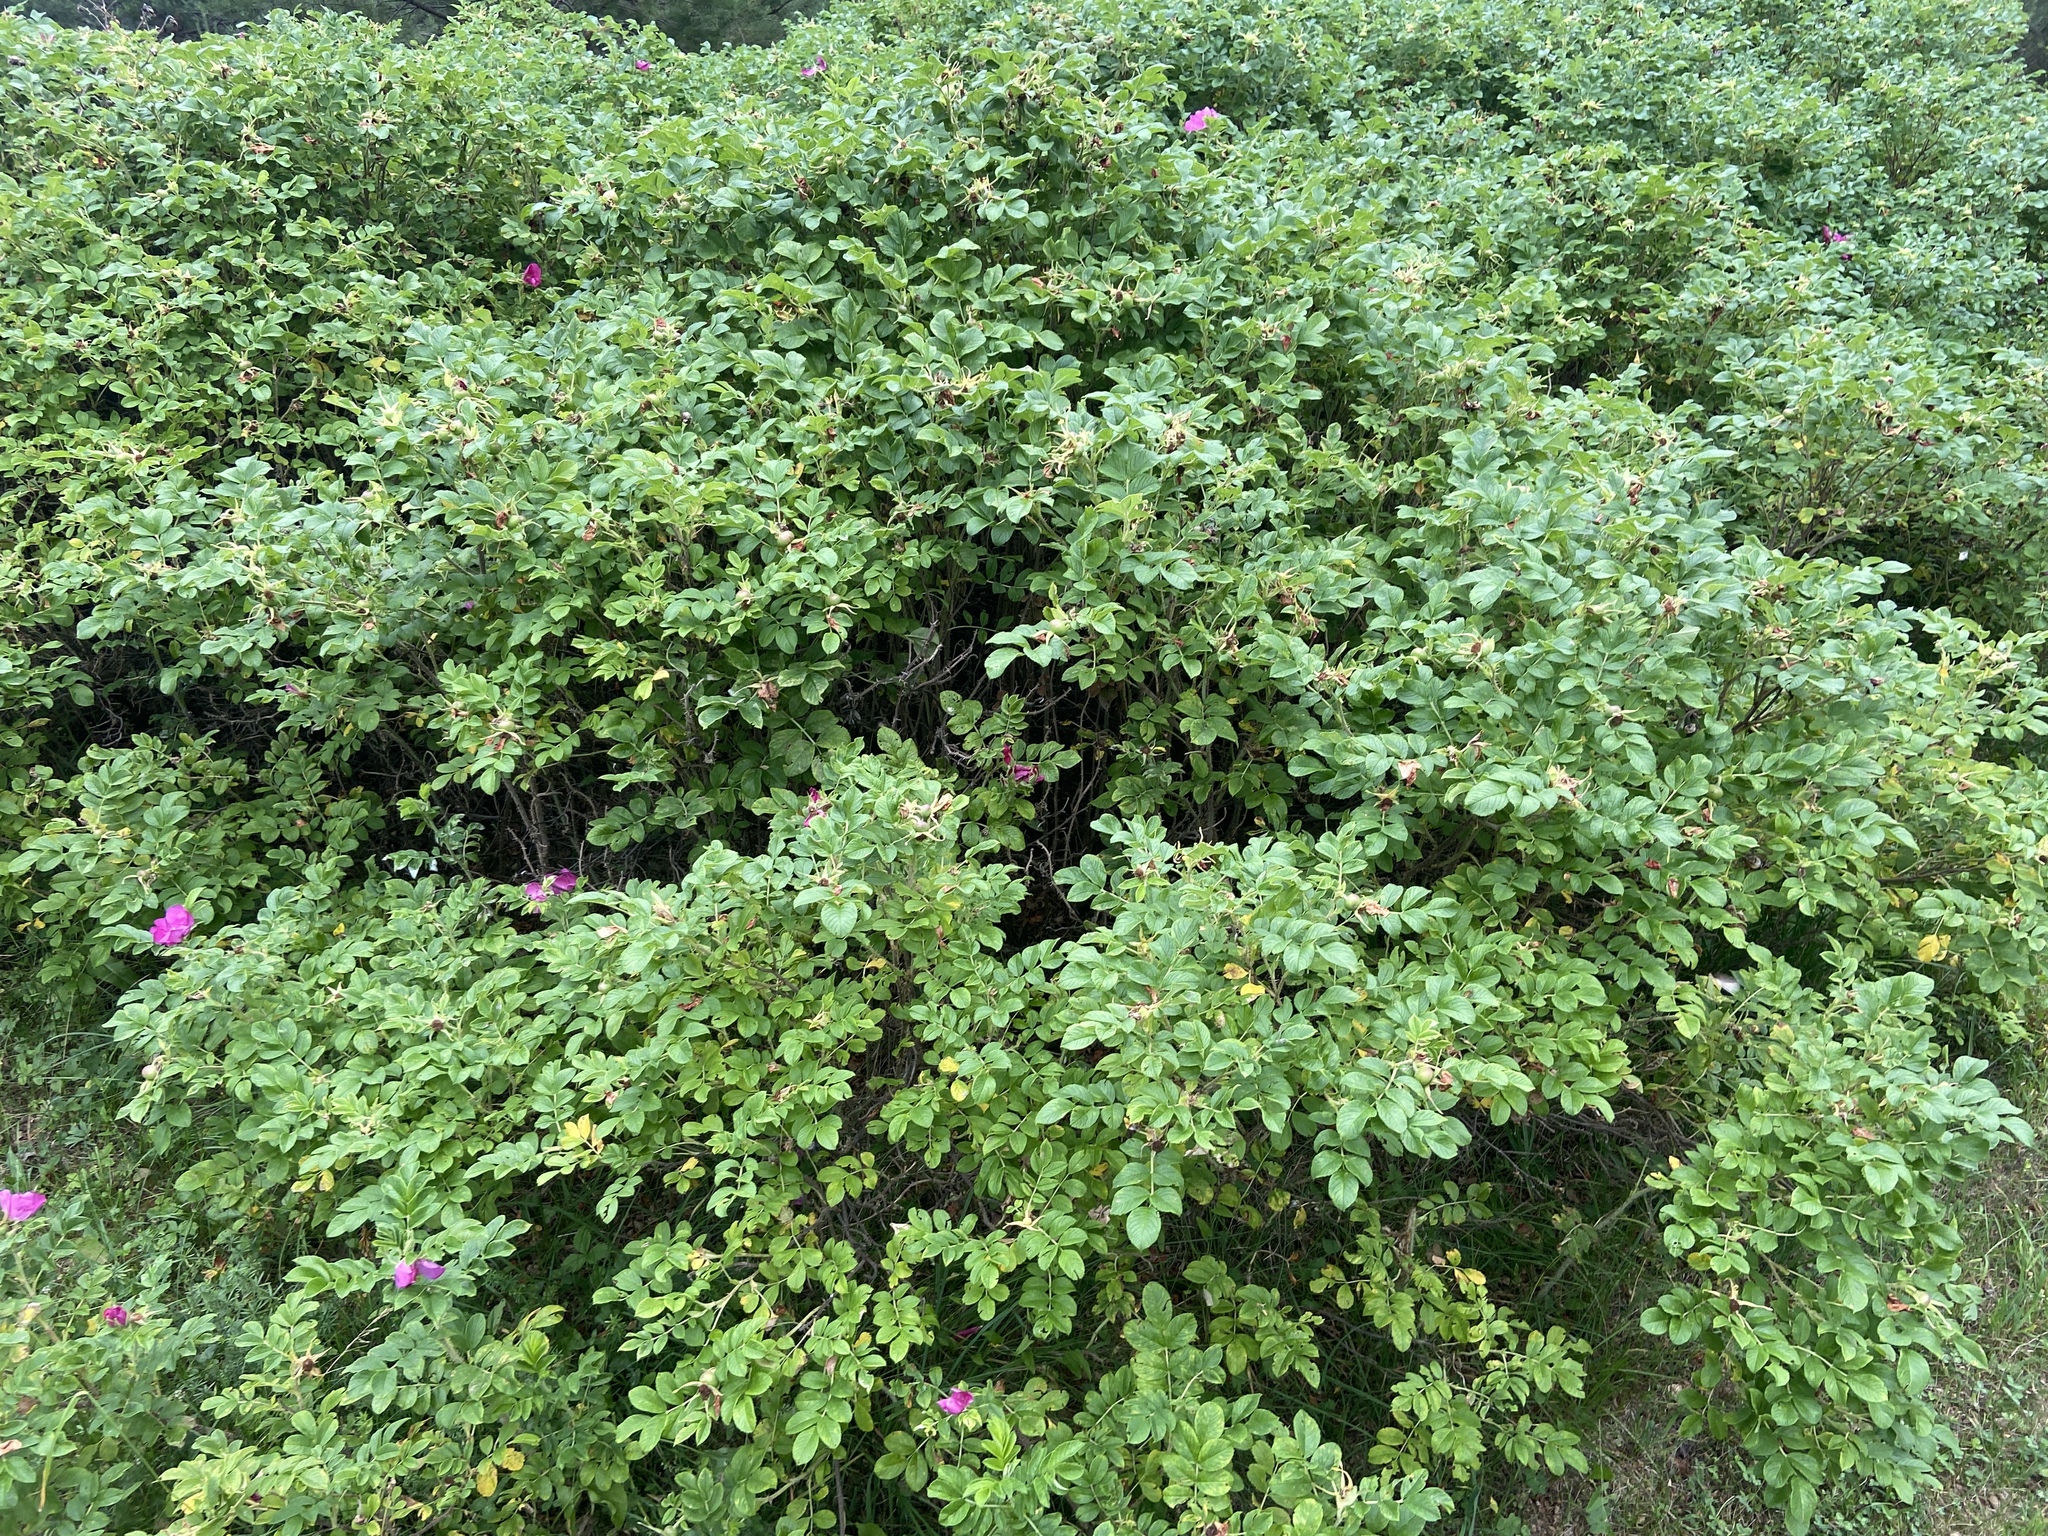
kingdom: Plantae
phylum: Tracheophyta
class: Magnoliopsida
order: Rosales
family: Rosaceae
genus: Rosa
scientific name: Rosa rugosa
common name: Japanese rose
